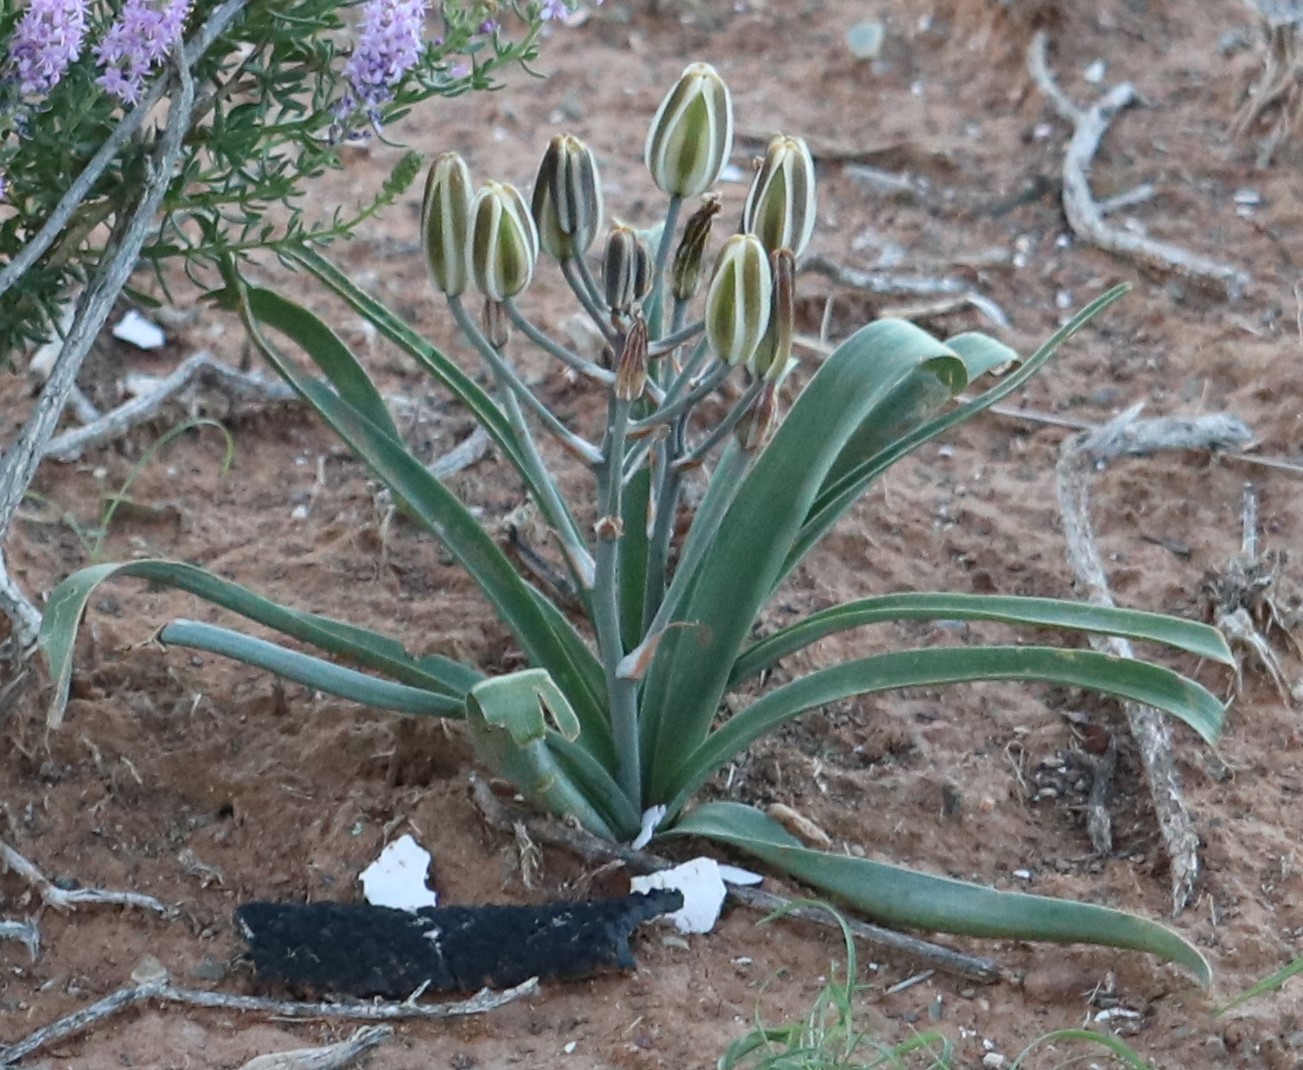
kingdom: Plantae
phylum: Tracheophyta
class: Liliopsida
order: Asparagales
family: Asparagaceae
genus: Albuca
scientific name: Albuca setosa
